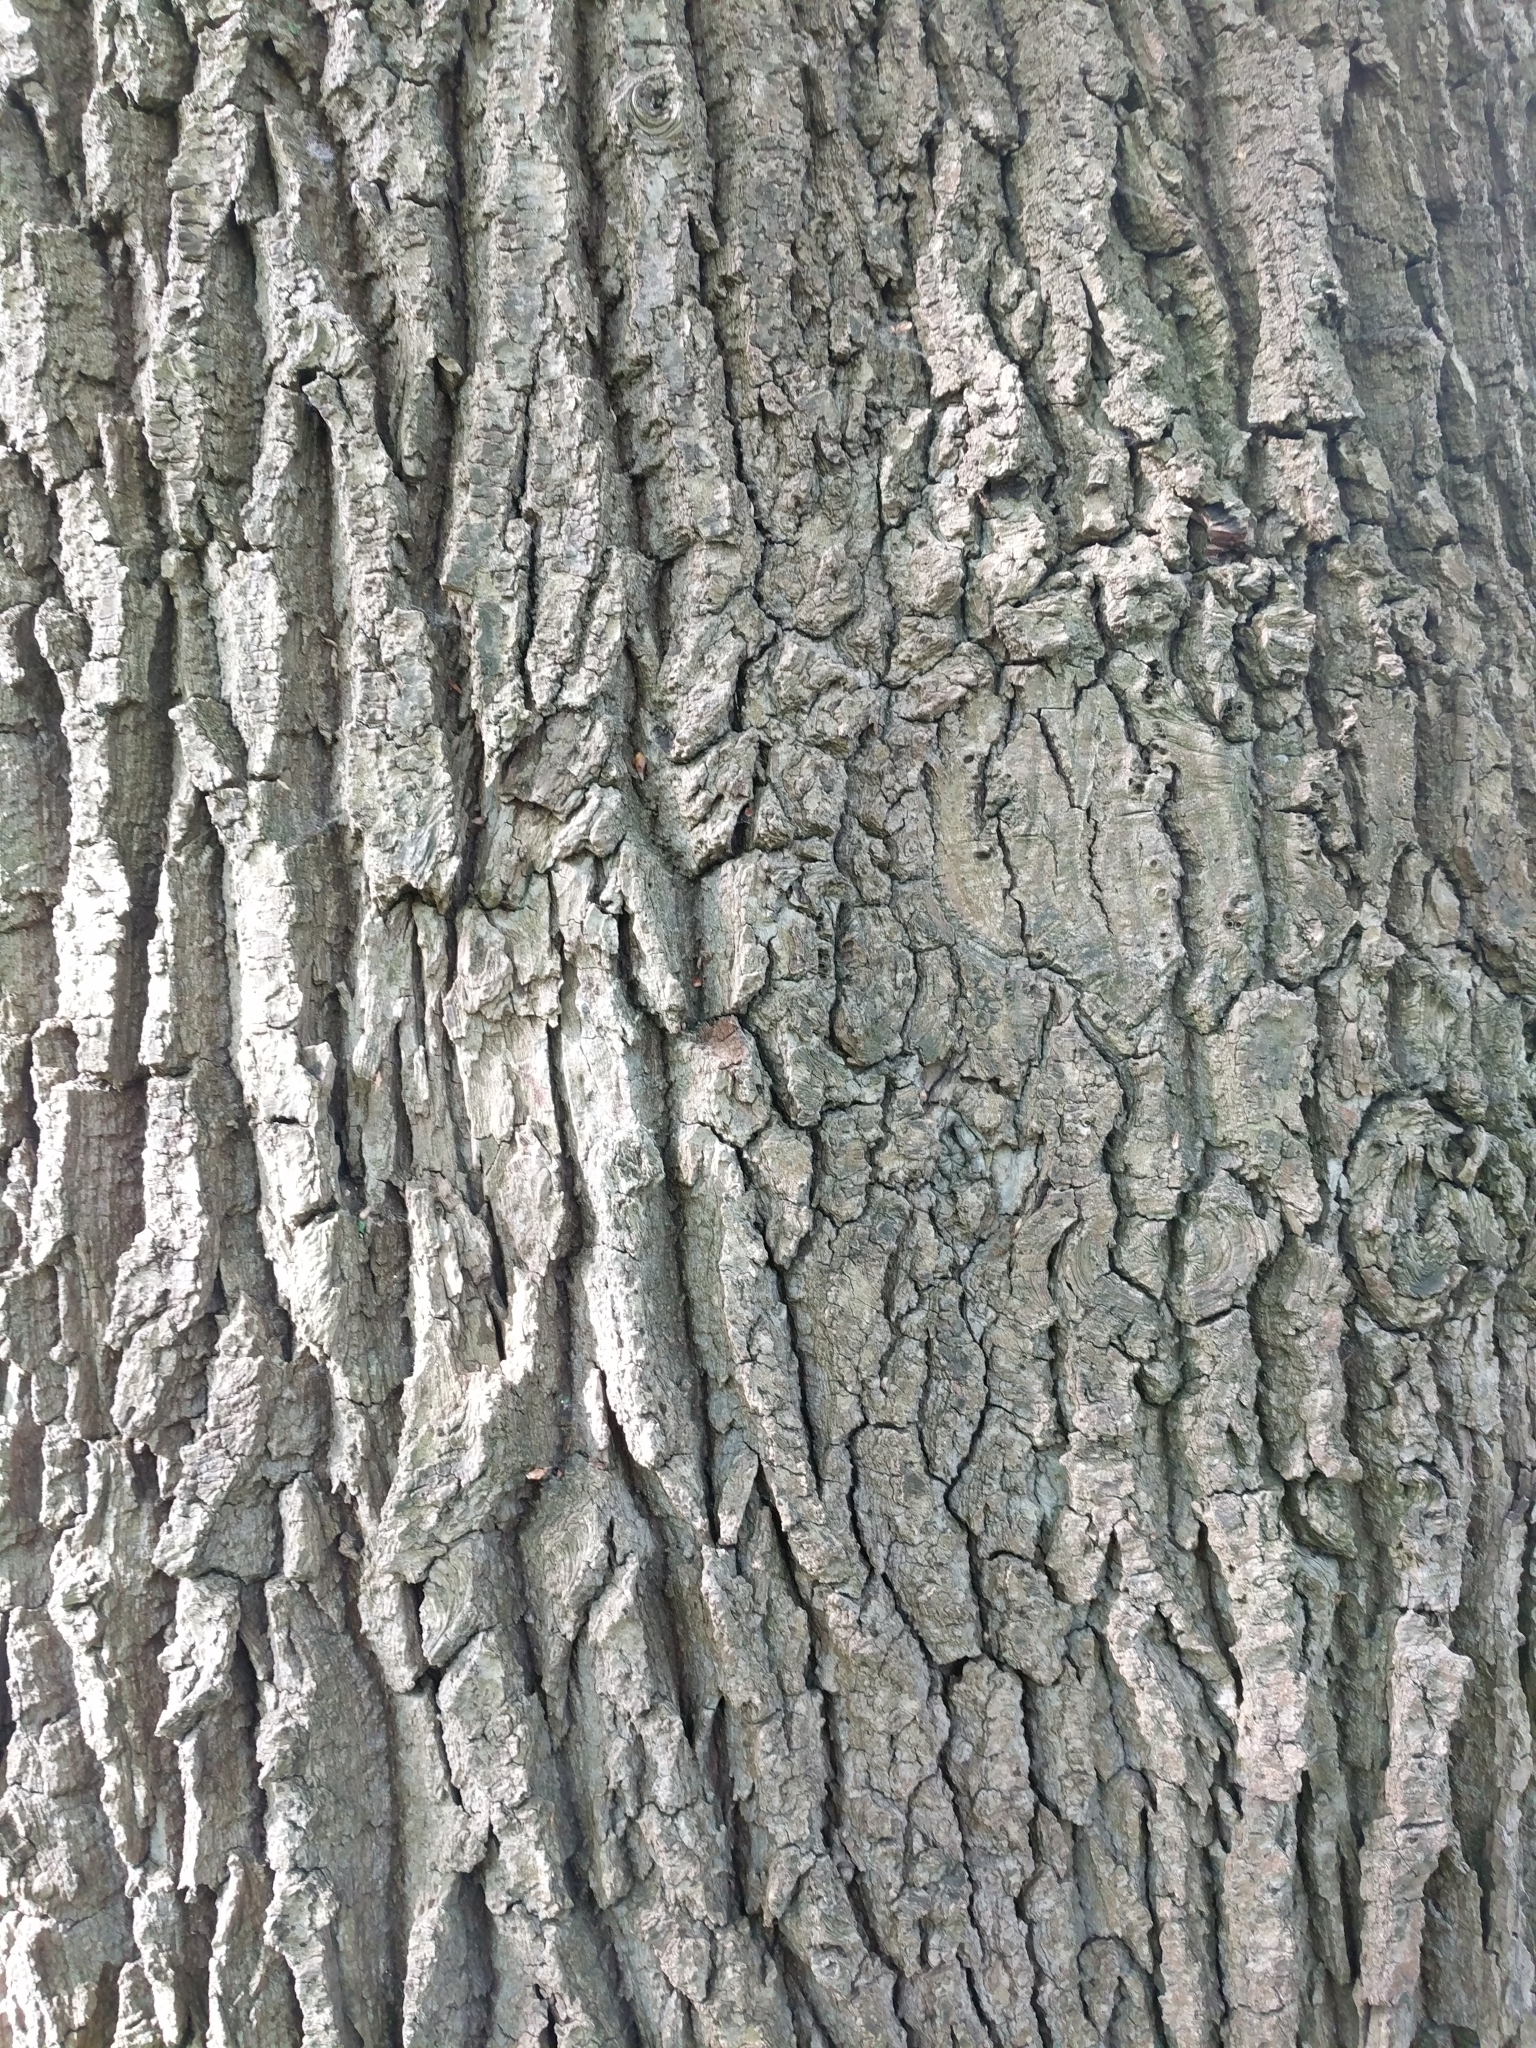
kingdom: Plantae
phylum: Tracheophyta
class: Magnoliopsida
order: Fagales
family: Fagaceae
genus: Quercus
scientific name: Quercus robur
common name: Pedunculate oak
